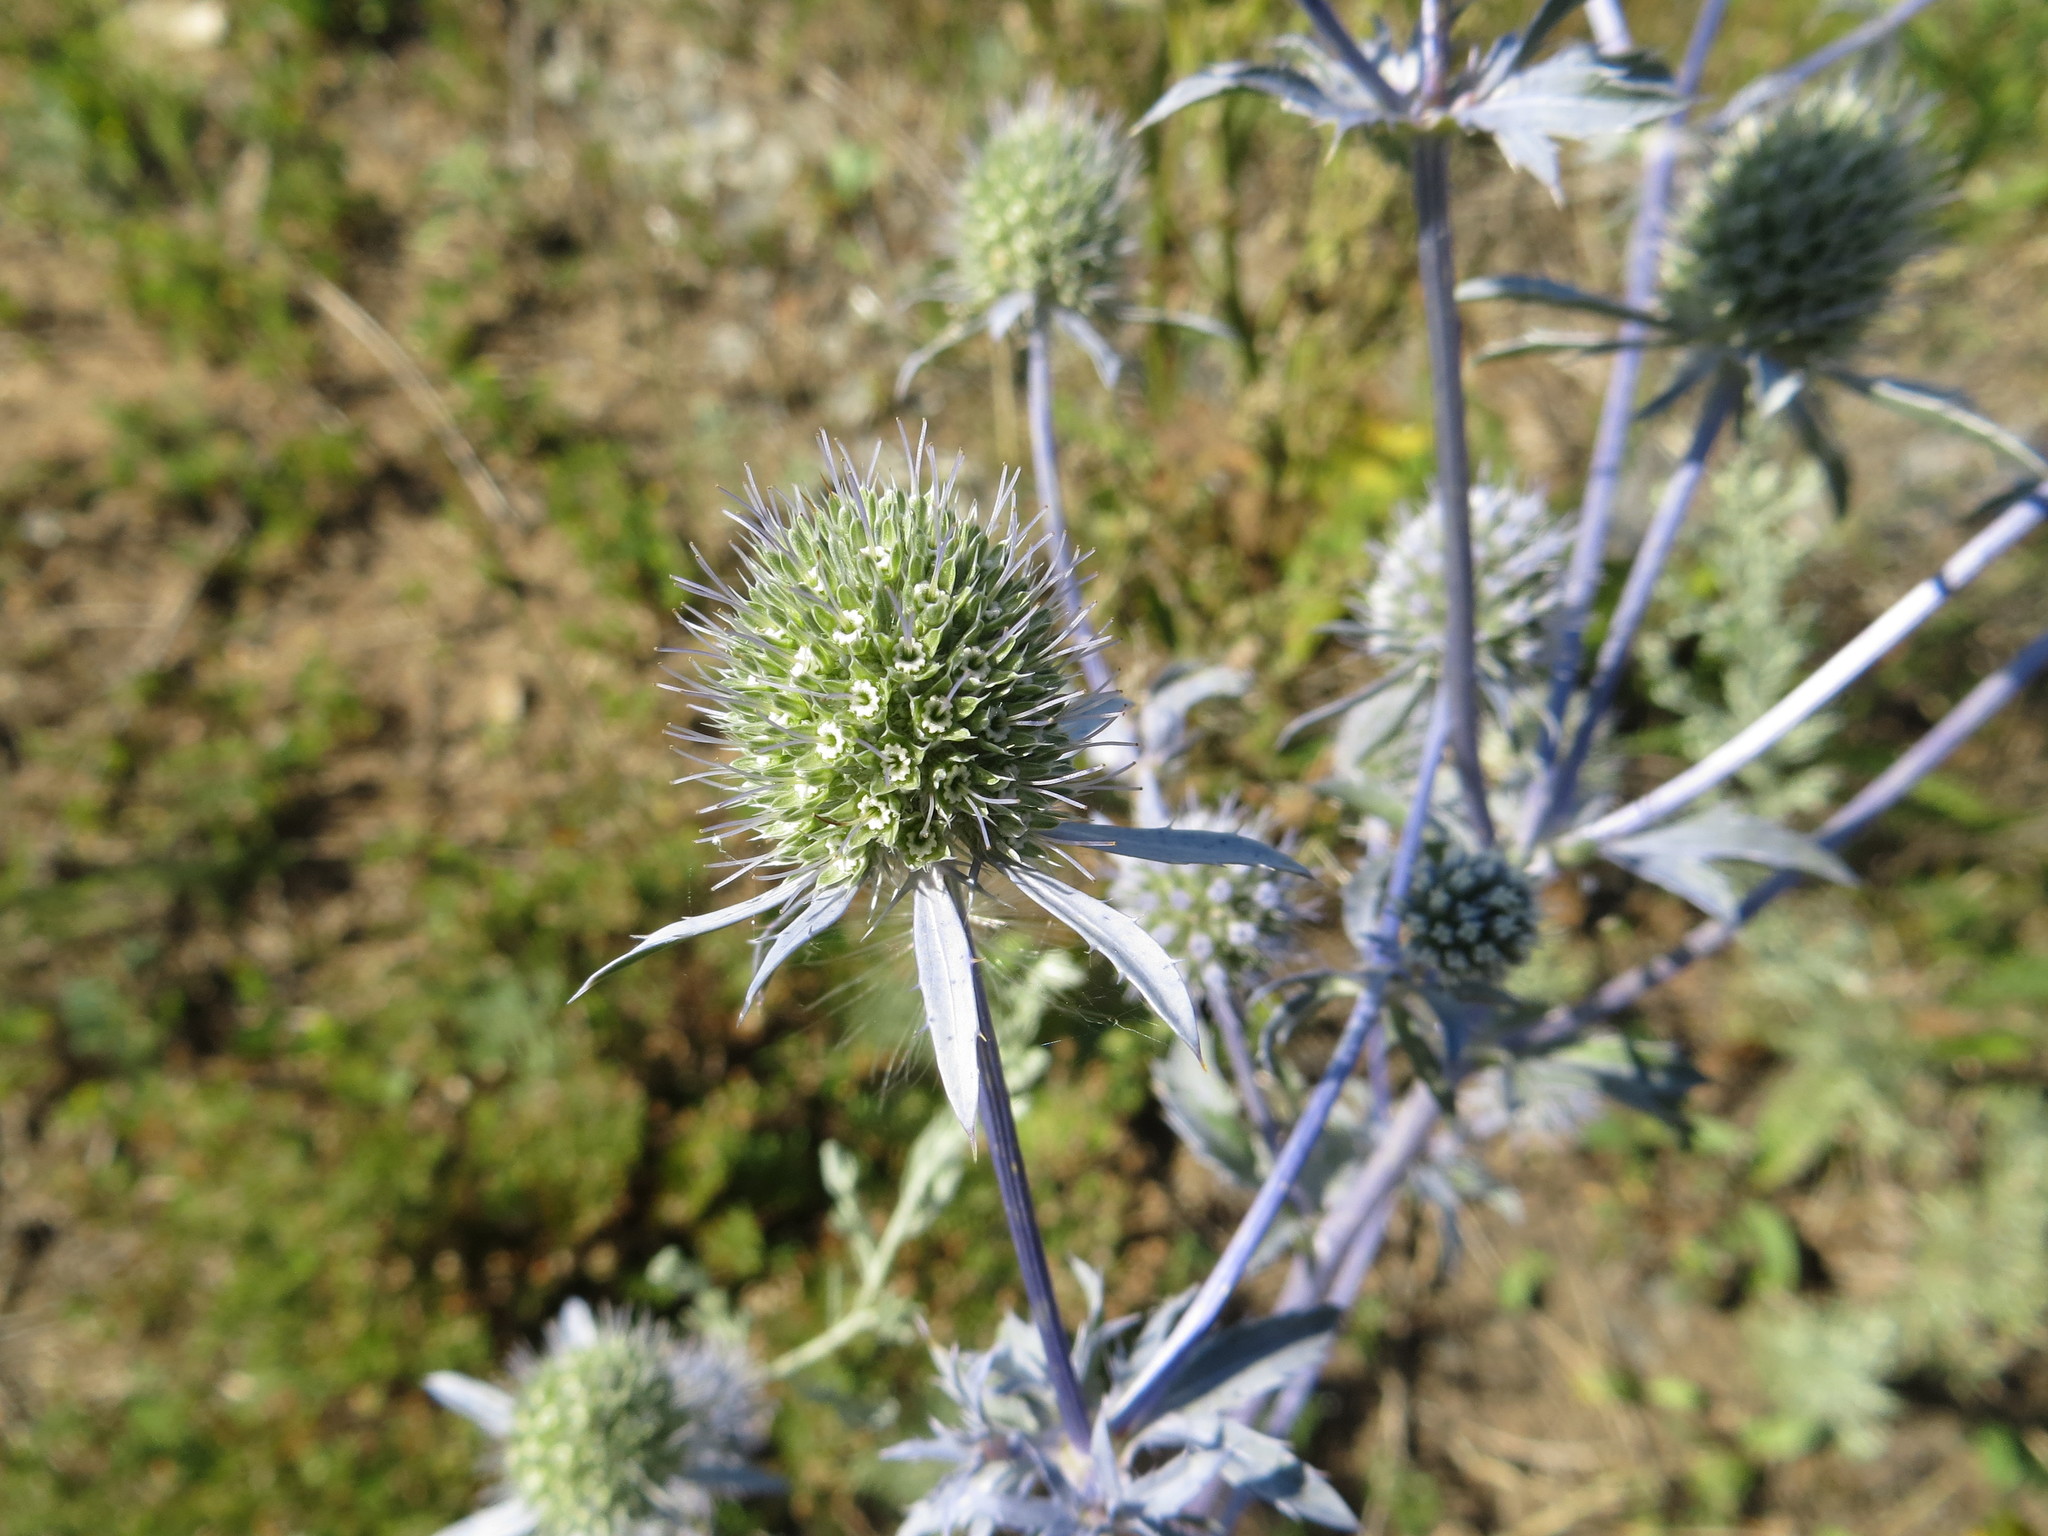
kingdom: Plantae
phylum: Tracheophyta
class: Magnoliopsida
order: Apiales
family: Apiaceae
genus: Eryngium
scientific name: Eryngium planum
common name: Blue eryngo
